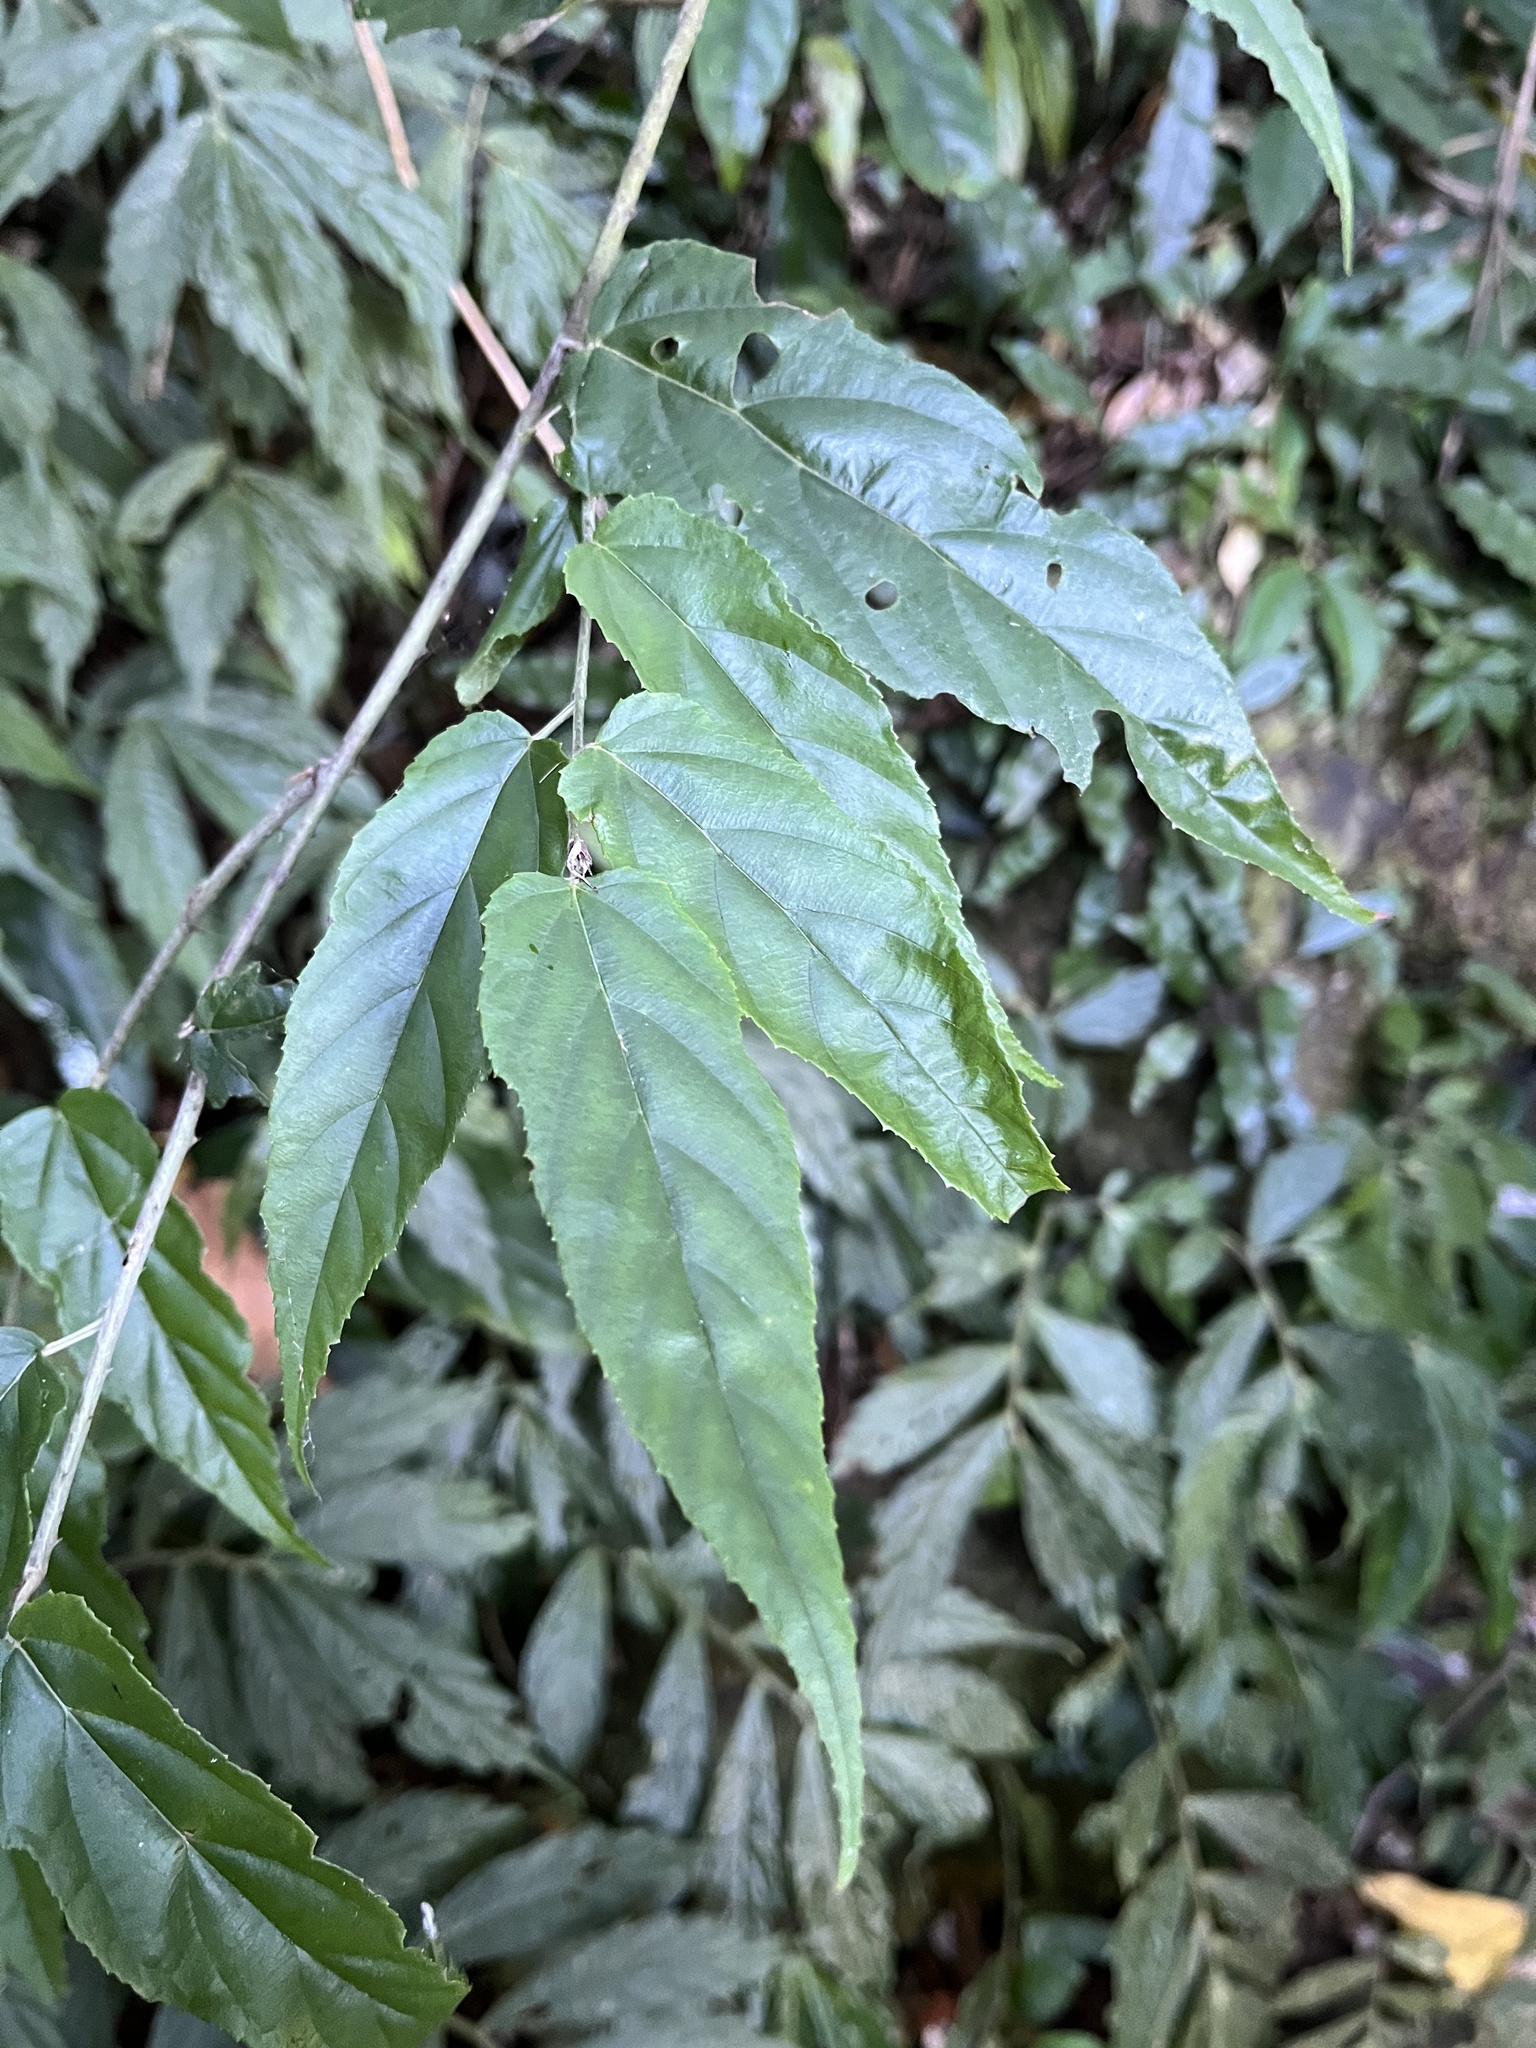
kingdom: Plantae
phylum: Tracheophyta
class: Magnoliopsida
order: Rosales
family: Rosaceae
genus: Rubus
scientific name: Rubus swinhoei
